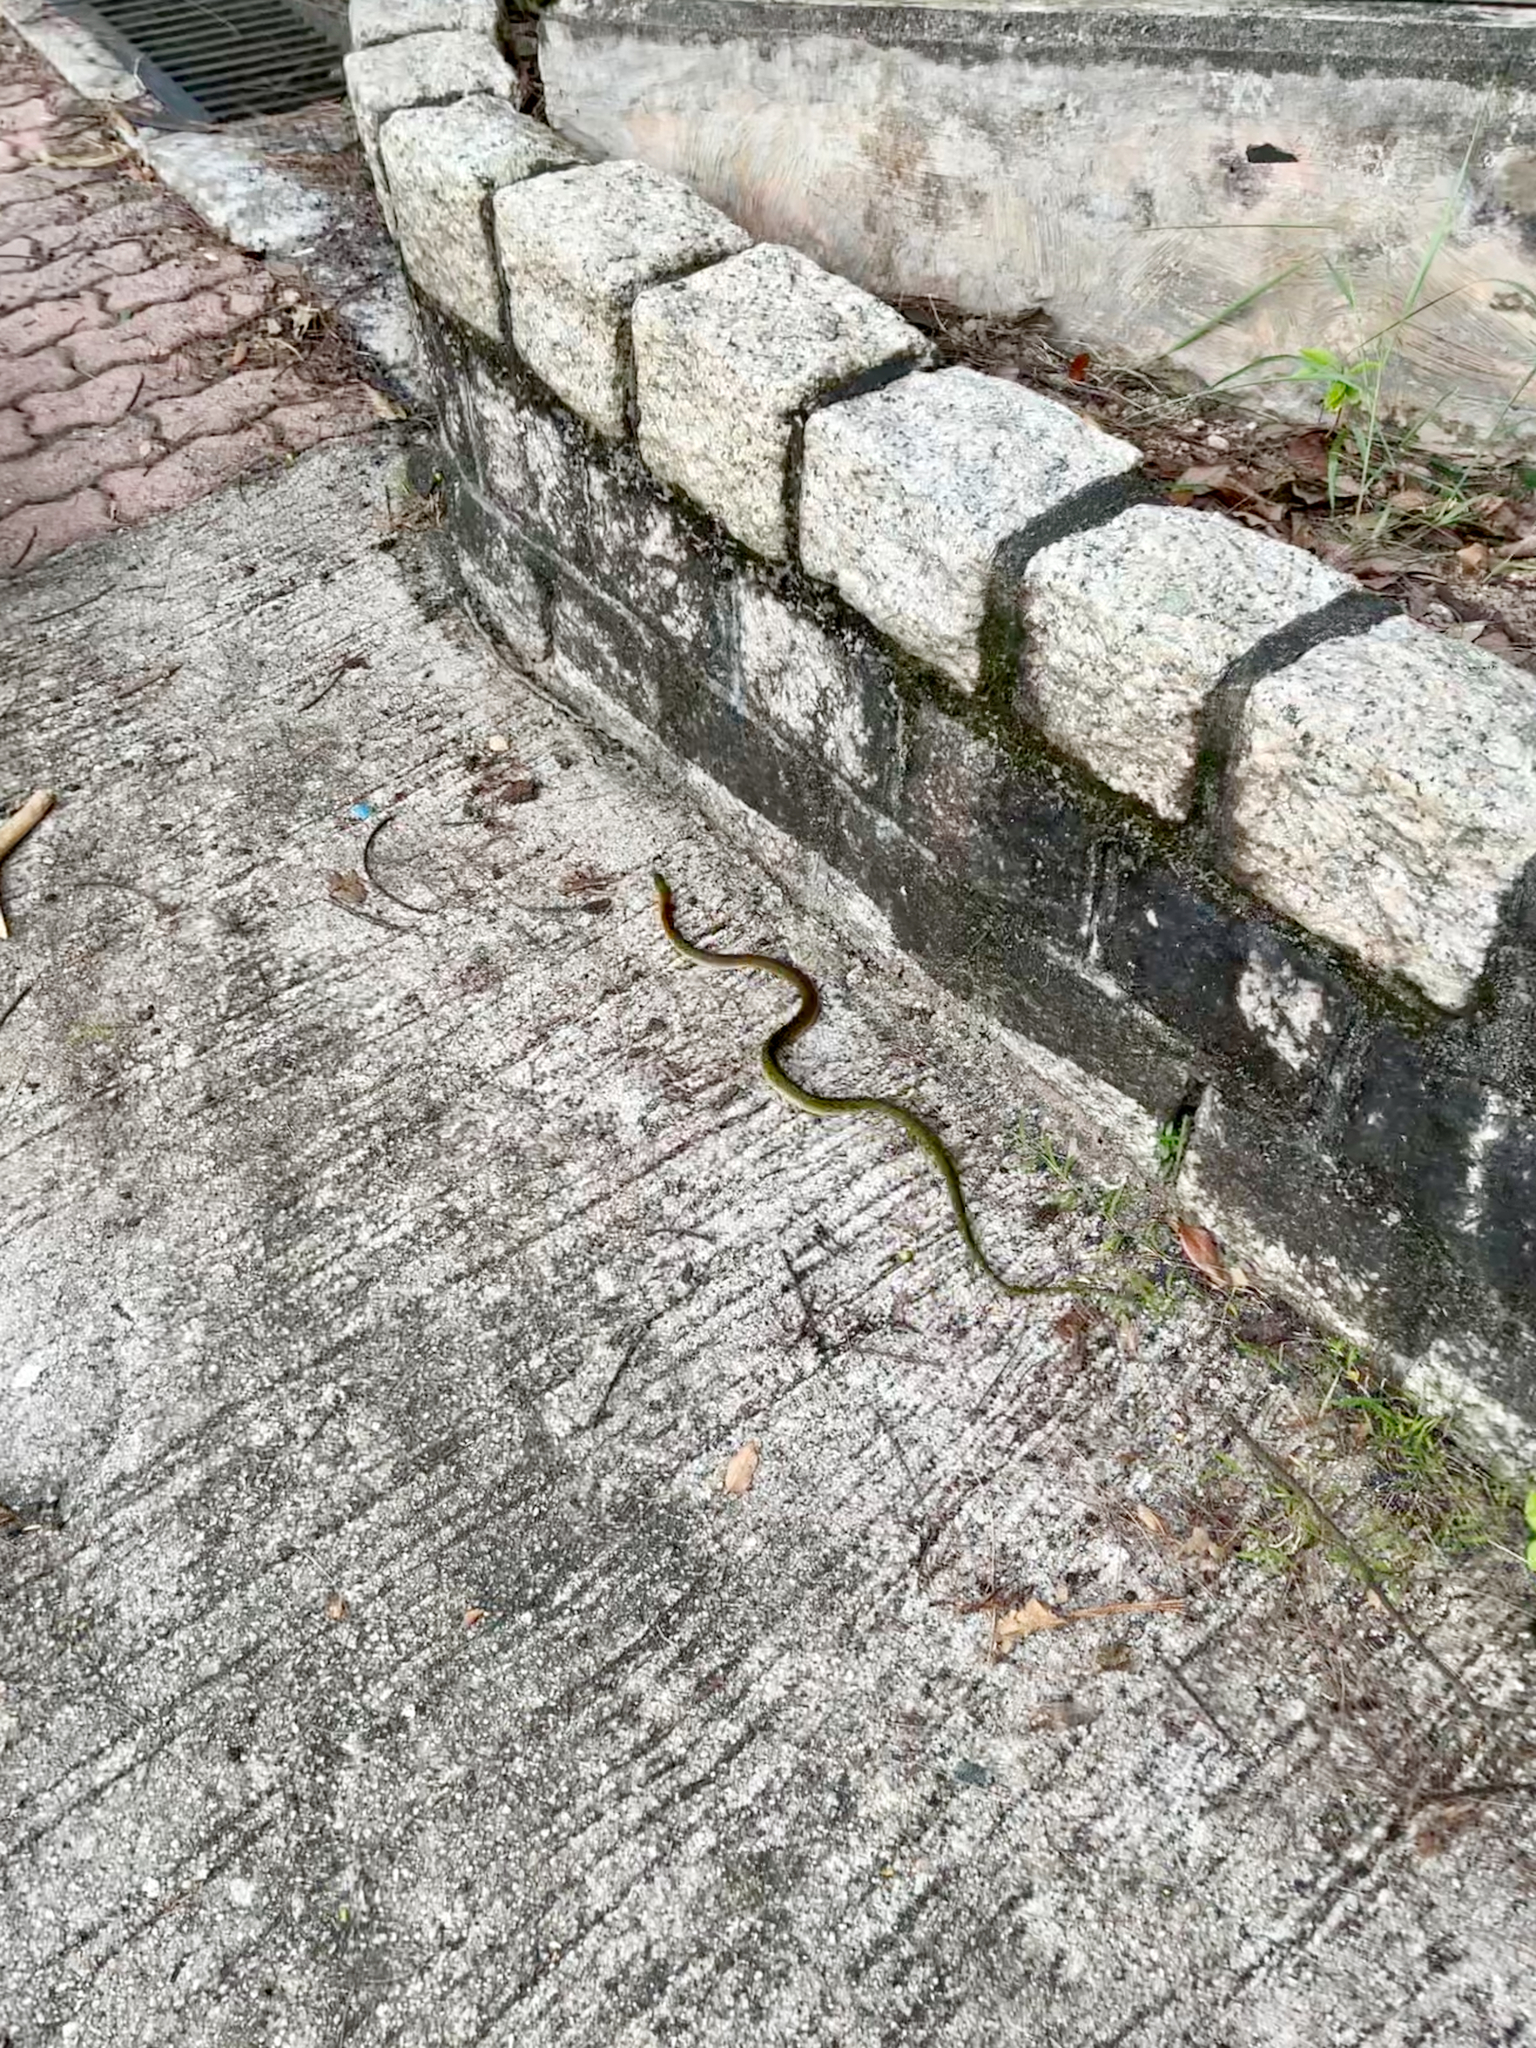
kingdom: Animalia
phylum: Chordata
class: Squamata
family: Colubridae
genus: Rhabdophis
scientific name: Rhabdophis helleri
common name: Heller’s red-necked keelback
